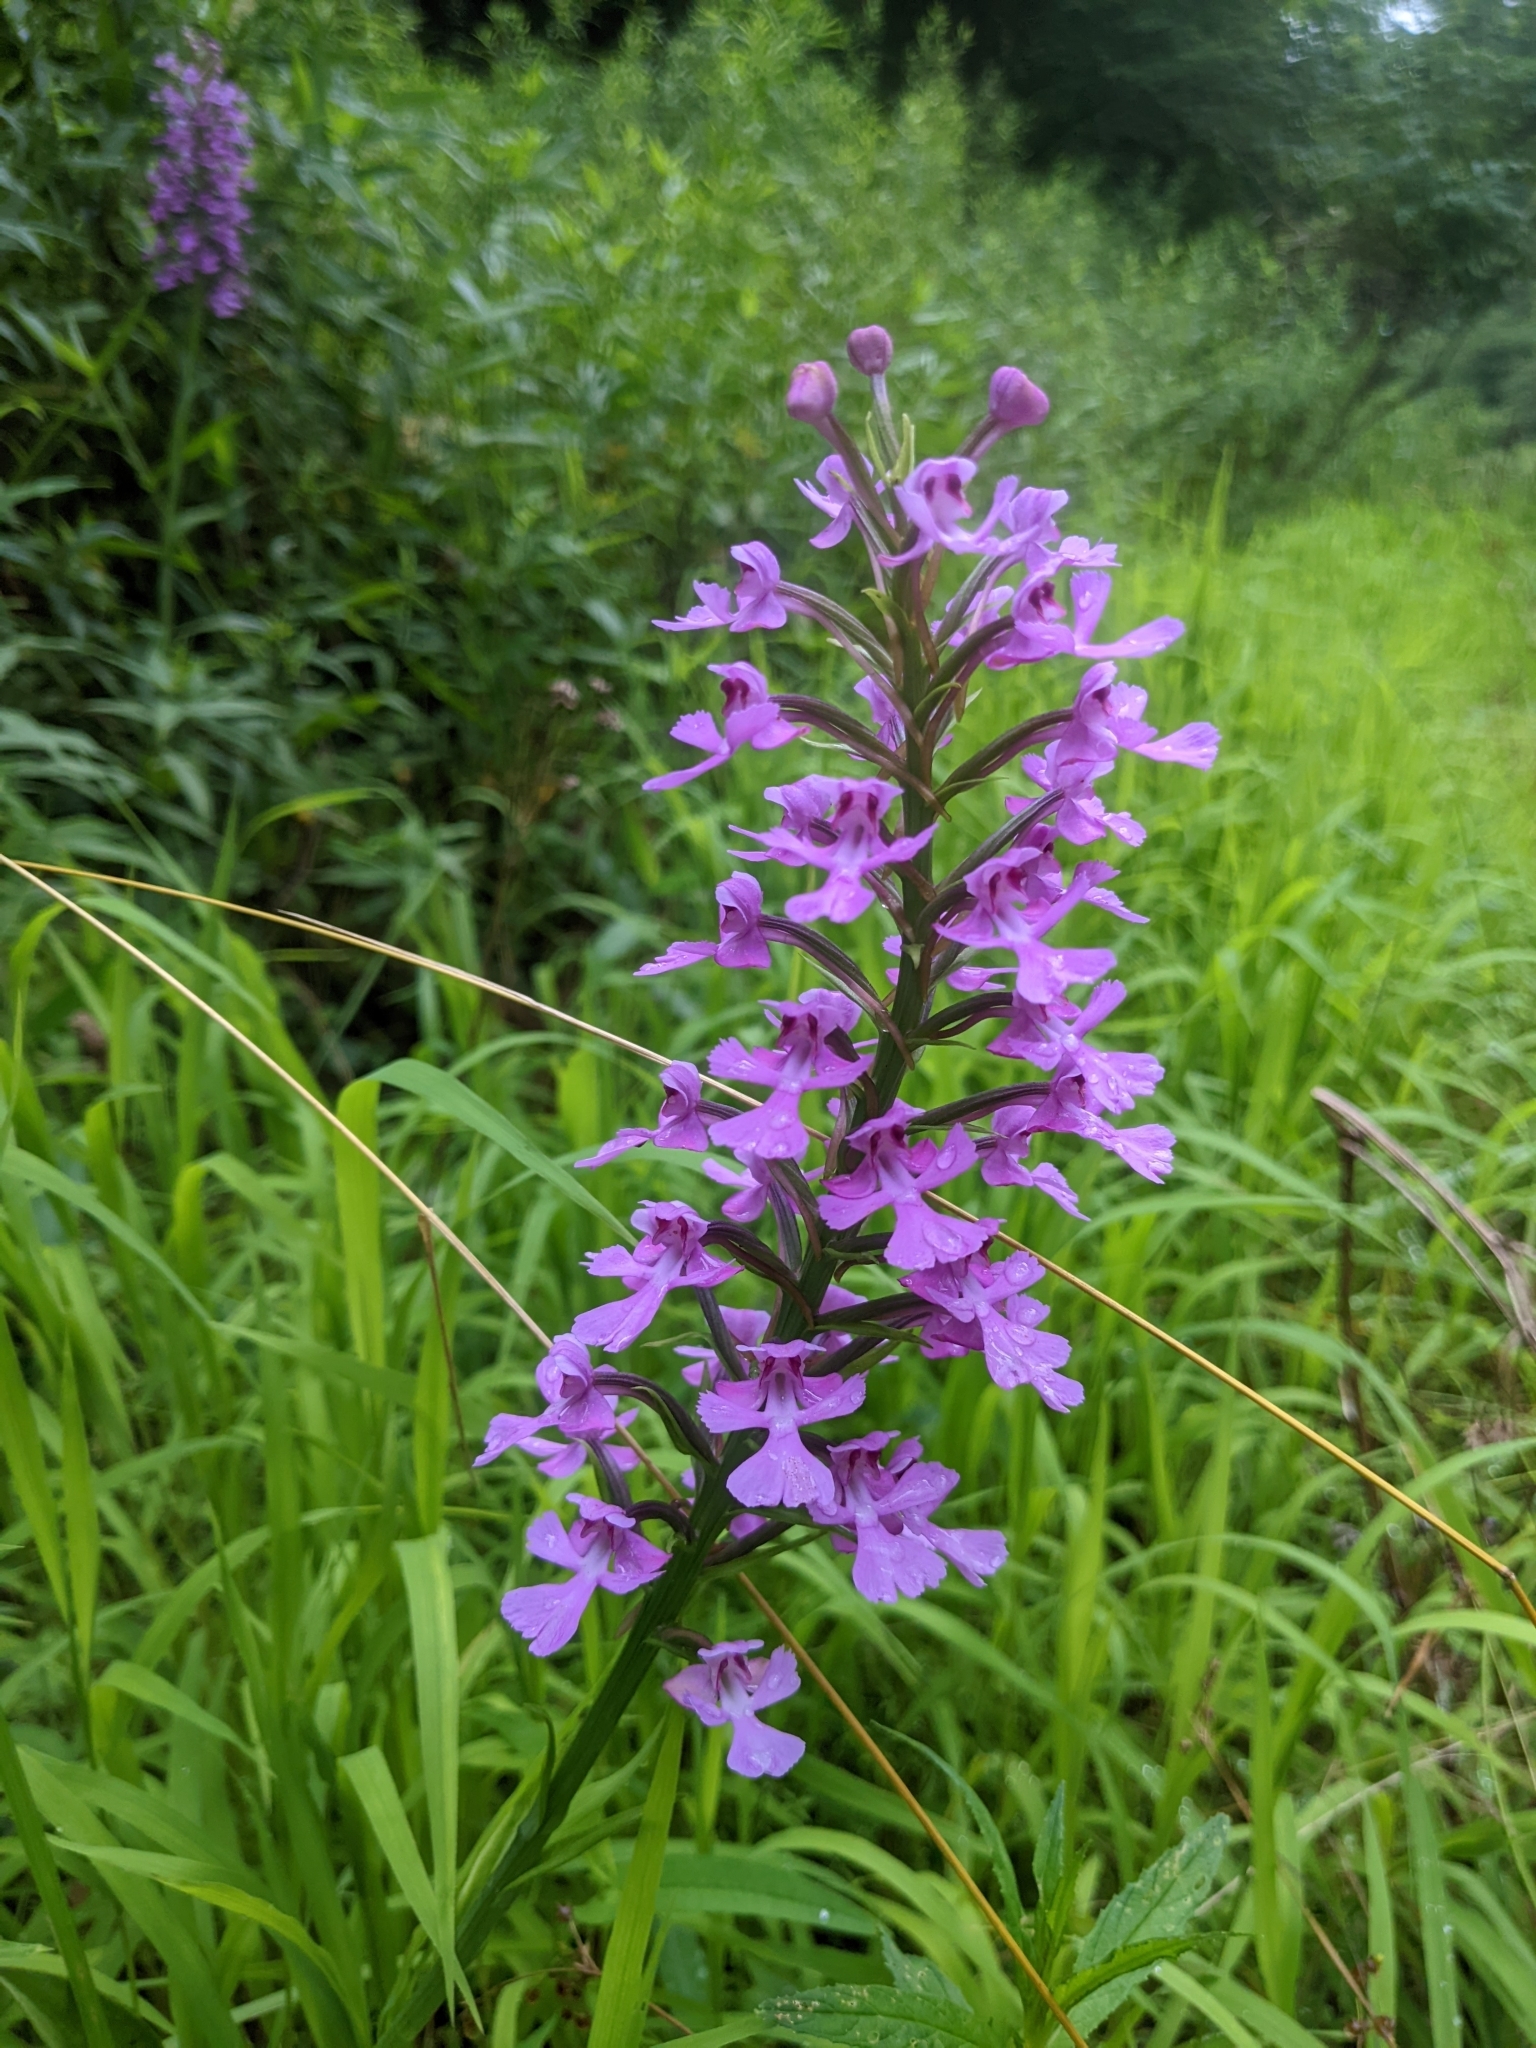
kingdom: Plantae
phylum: Tracheophyta
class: Liliopsida
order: Asparagales
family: Orchidaceae
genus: Platanthera
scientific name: Platanthera peramoena
